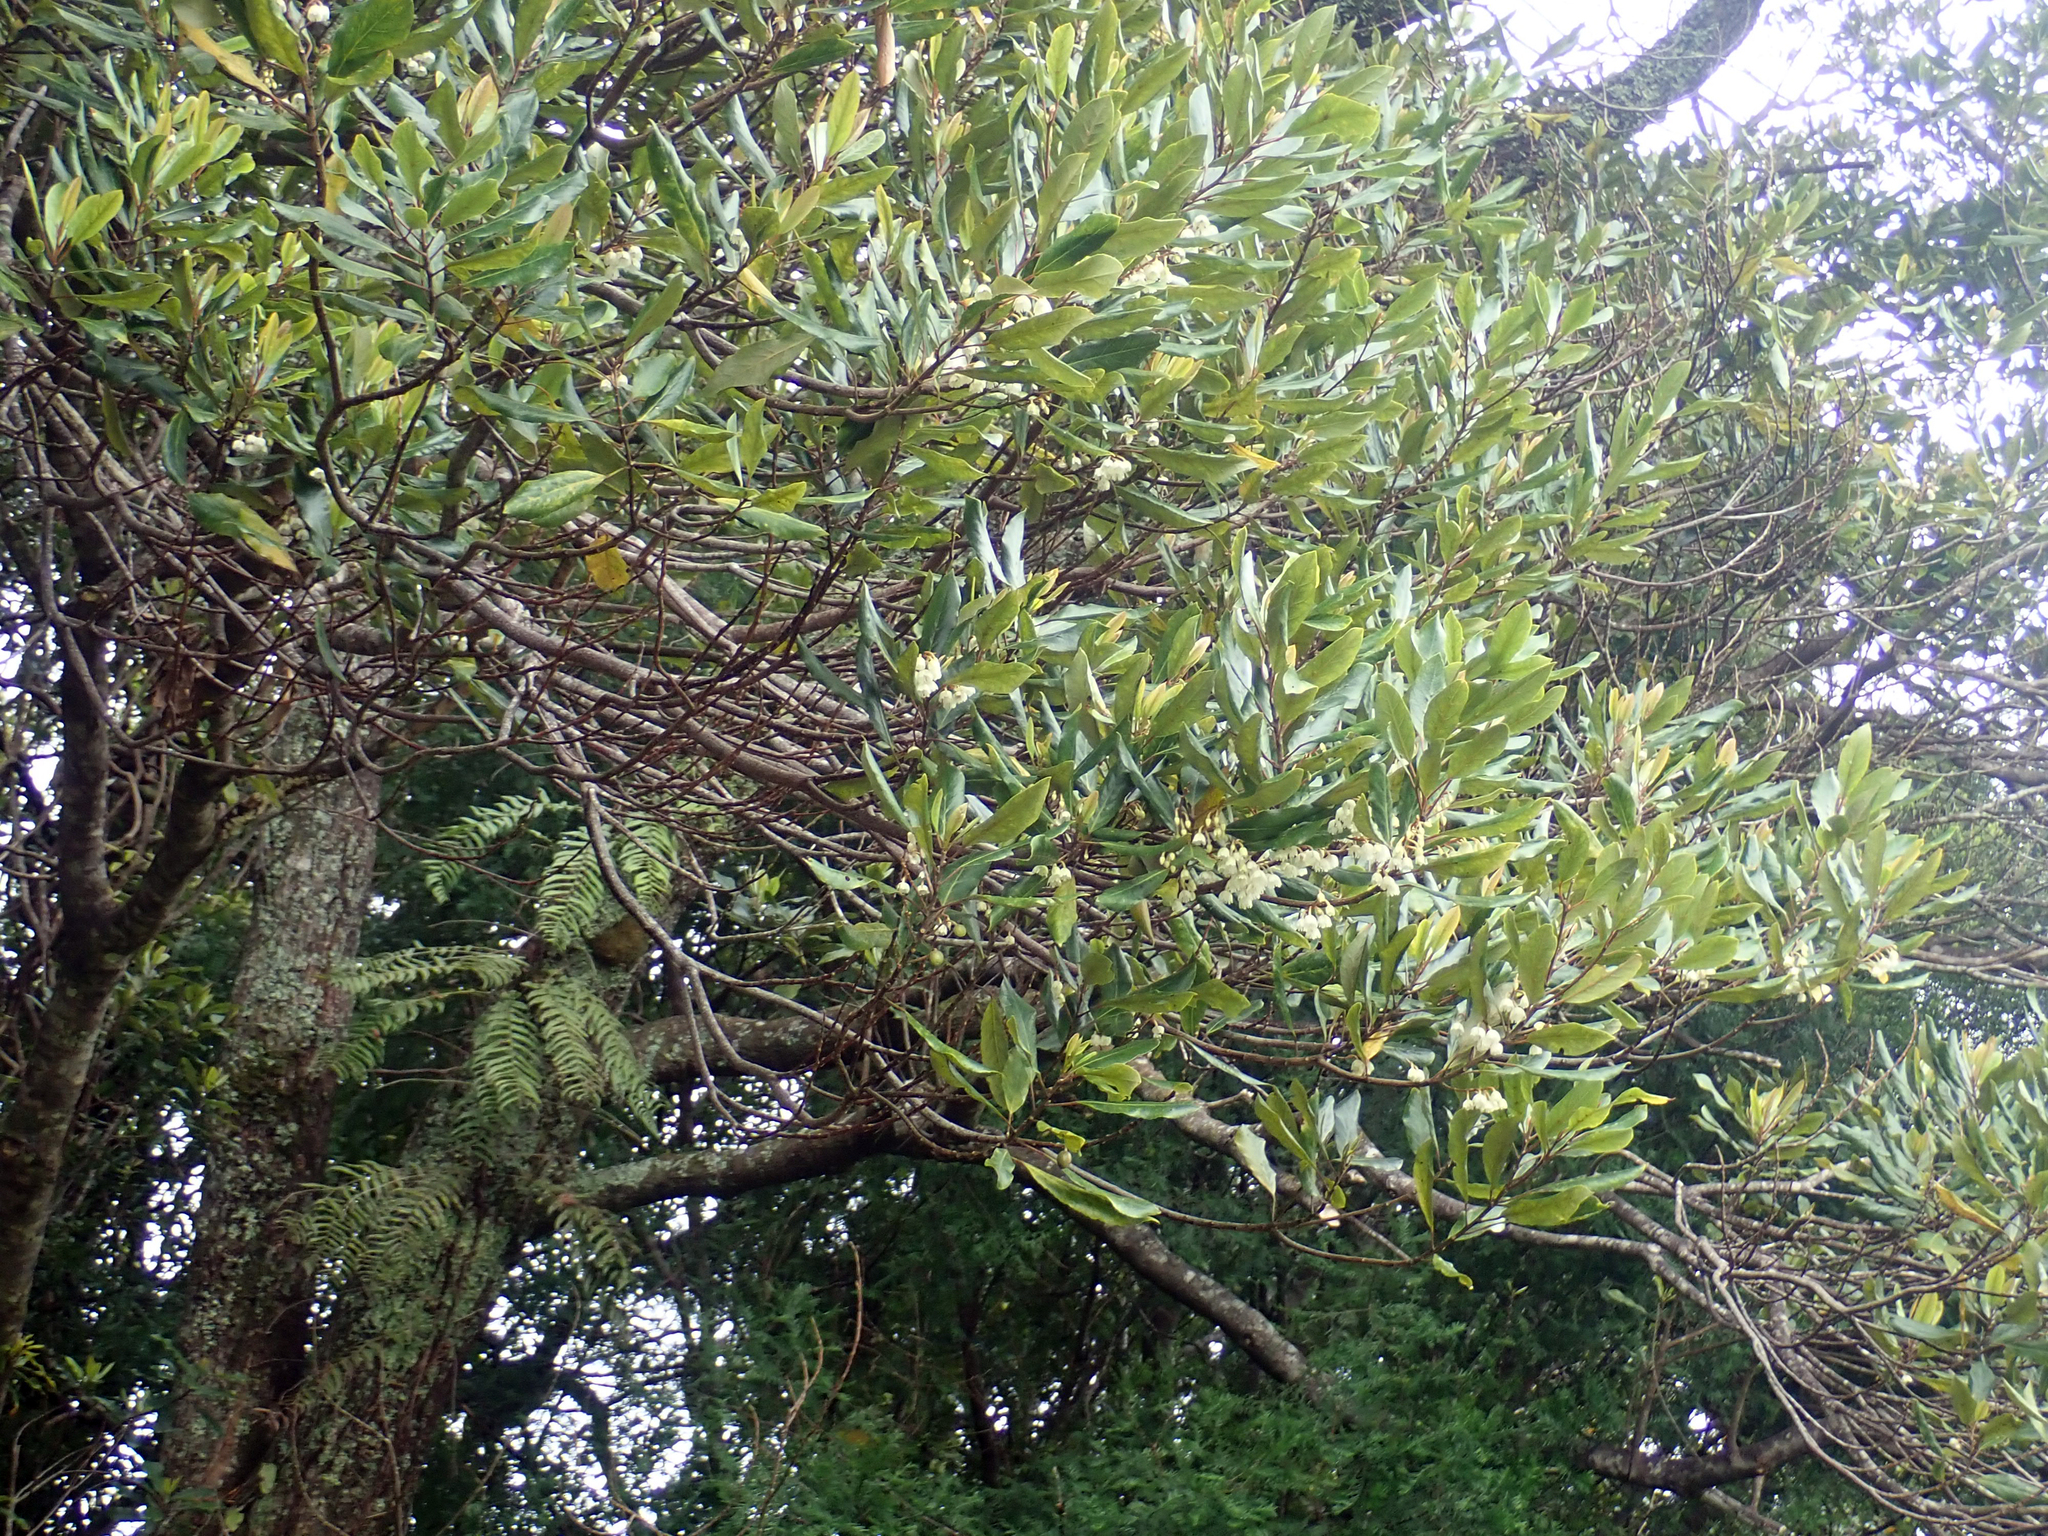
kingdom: Plantae
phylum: Tracheophyta
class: Magnoliopsida
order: Oxalidales
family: Elaeocarpaceae
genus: Elaeocarpus
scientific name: Elaeocarpus dentatus
